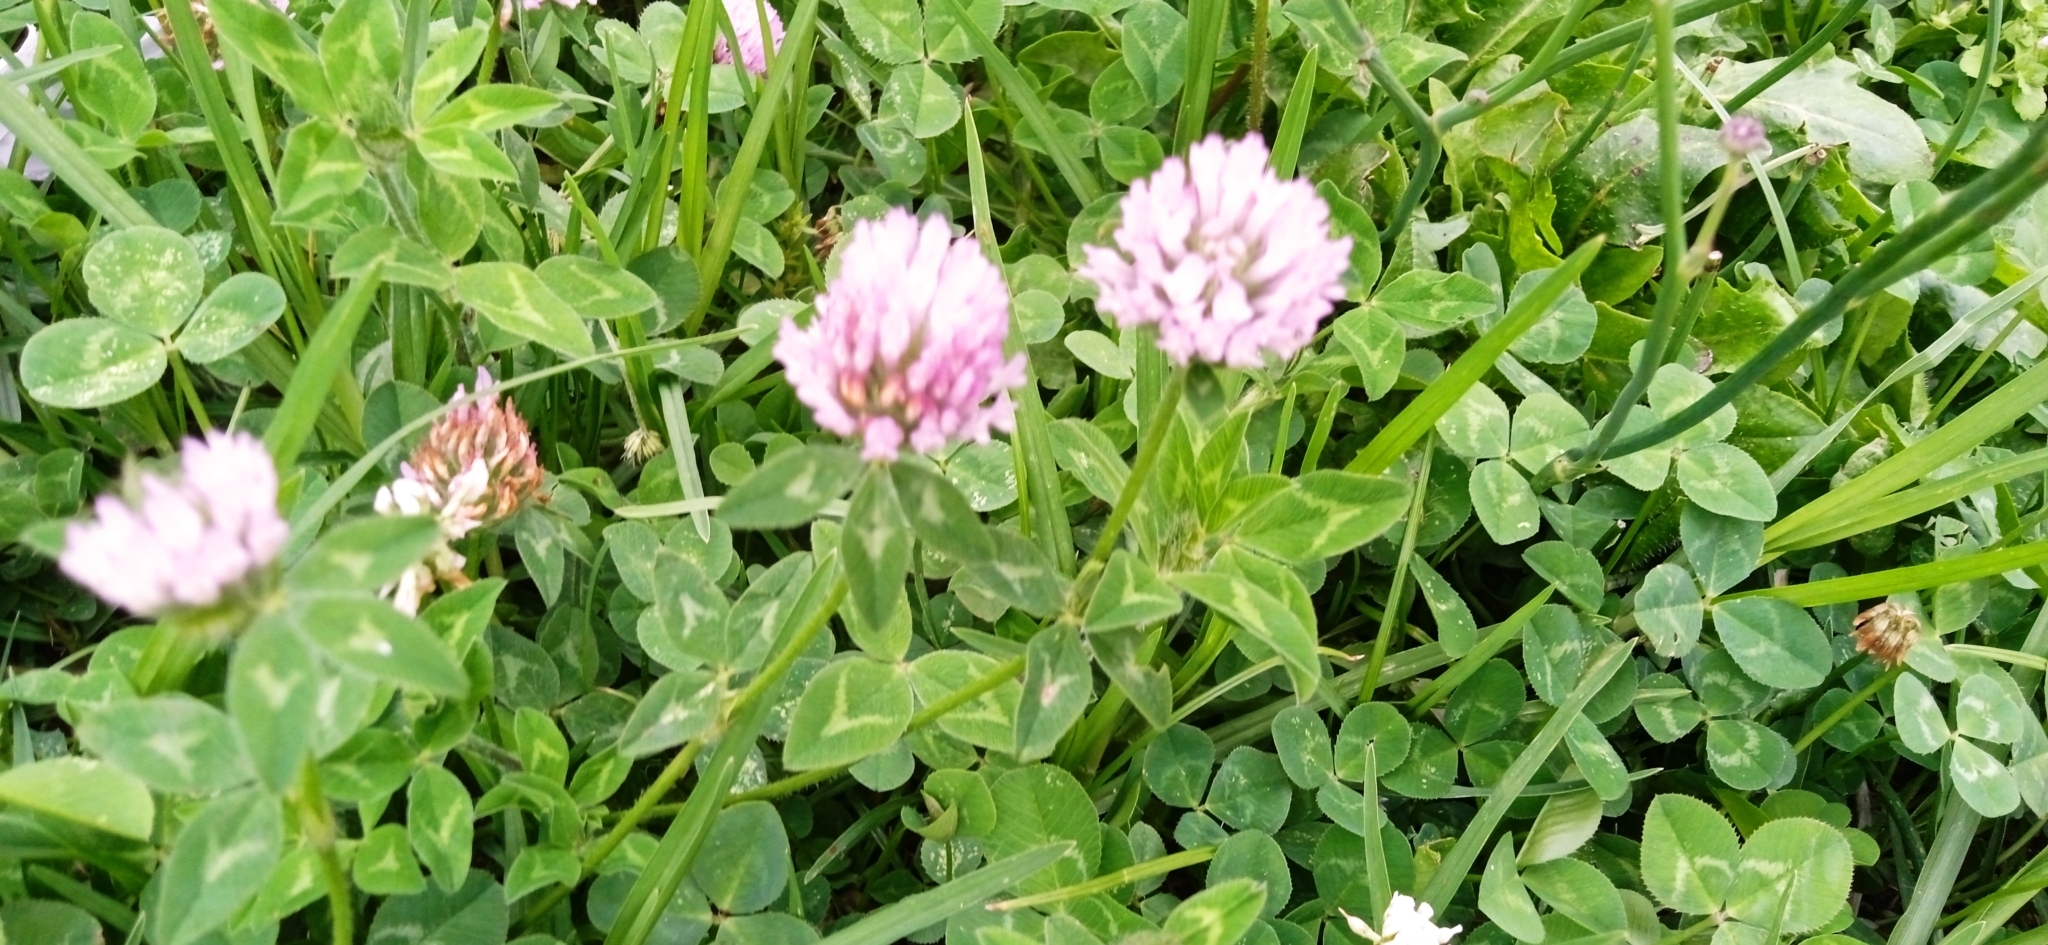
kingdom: Plantae
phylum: Tracheophyta
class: Magnoliopsida
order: Fabales
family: Fabaceae
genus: Trifolium
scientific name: Trifolium pratense
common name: Red clover
